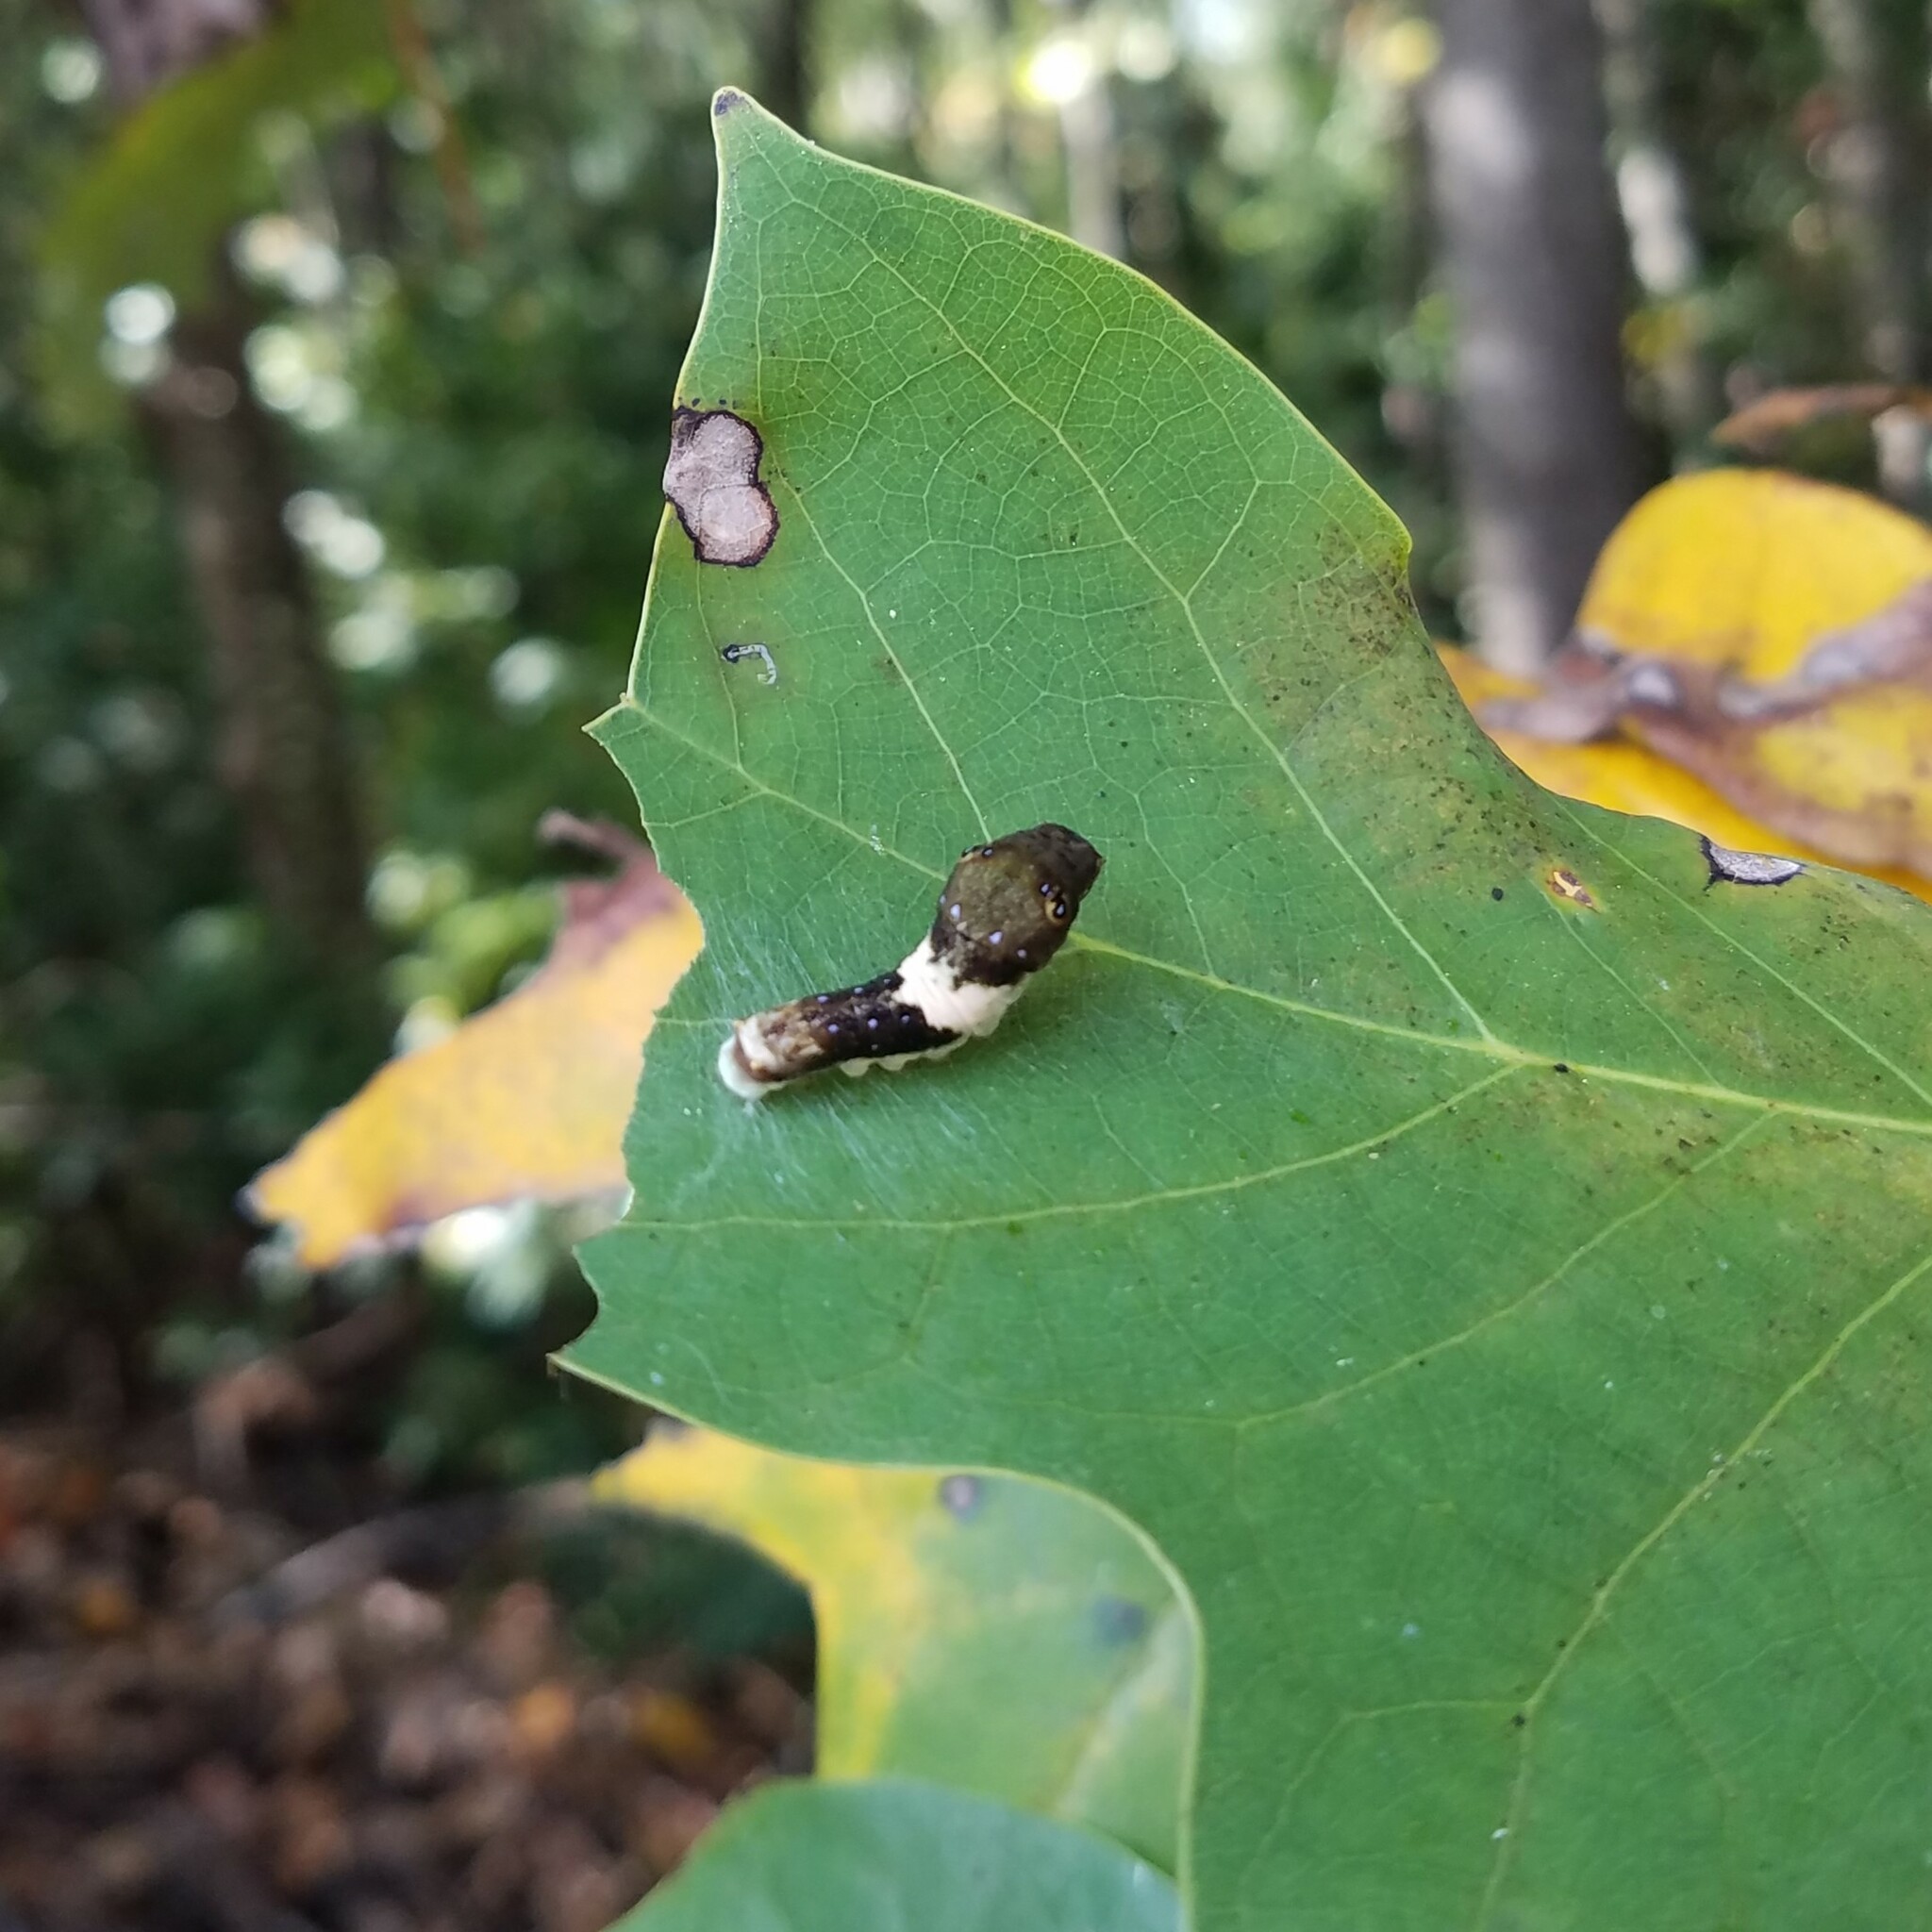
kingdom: Animalia
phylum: Arthropoda
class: Insecta
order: Lepidoptera
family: Papilionidae
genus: Papilio
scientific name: Papilio glaucus
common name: Tiger swallowtail
